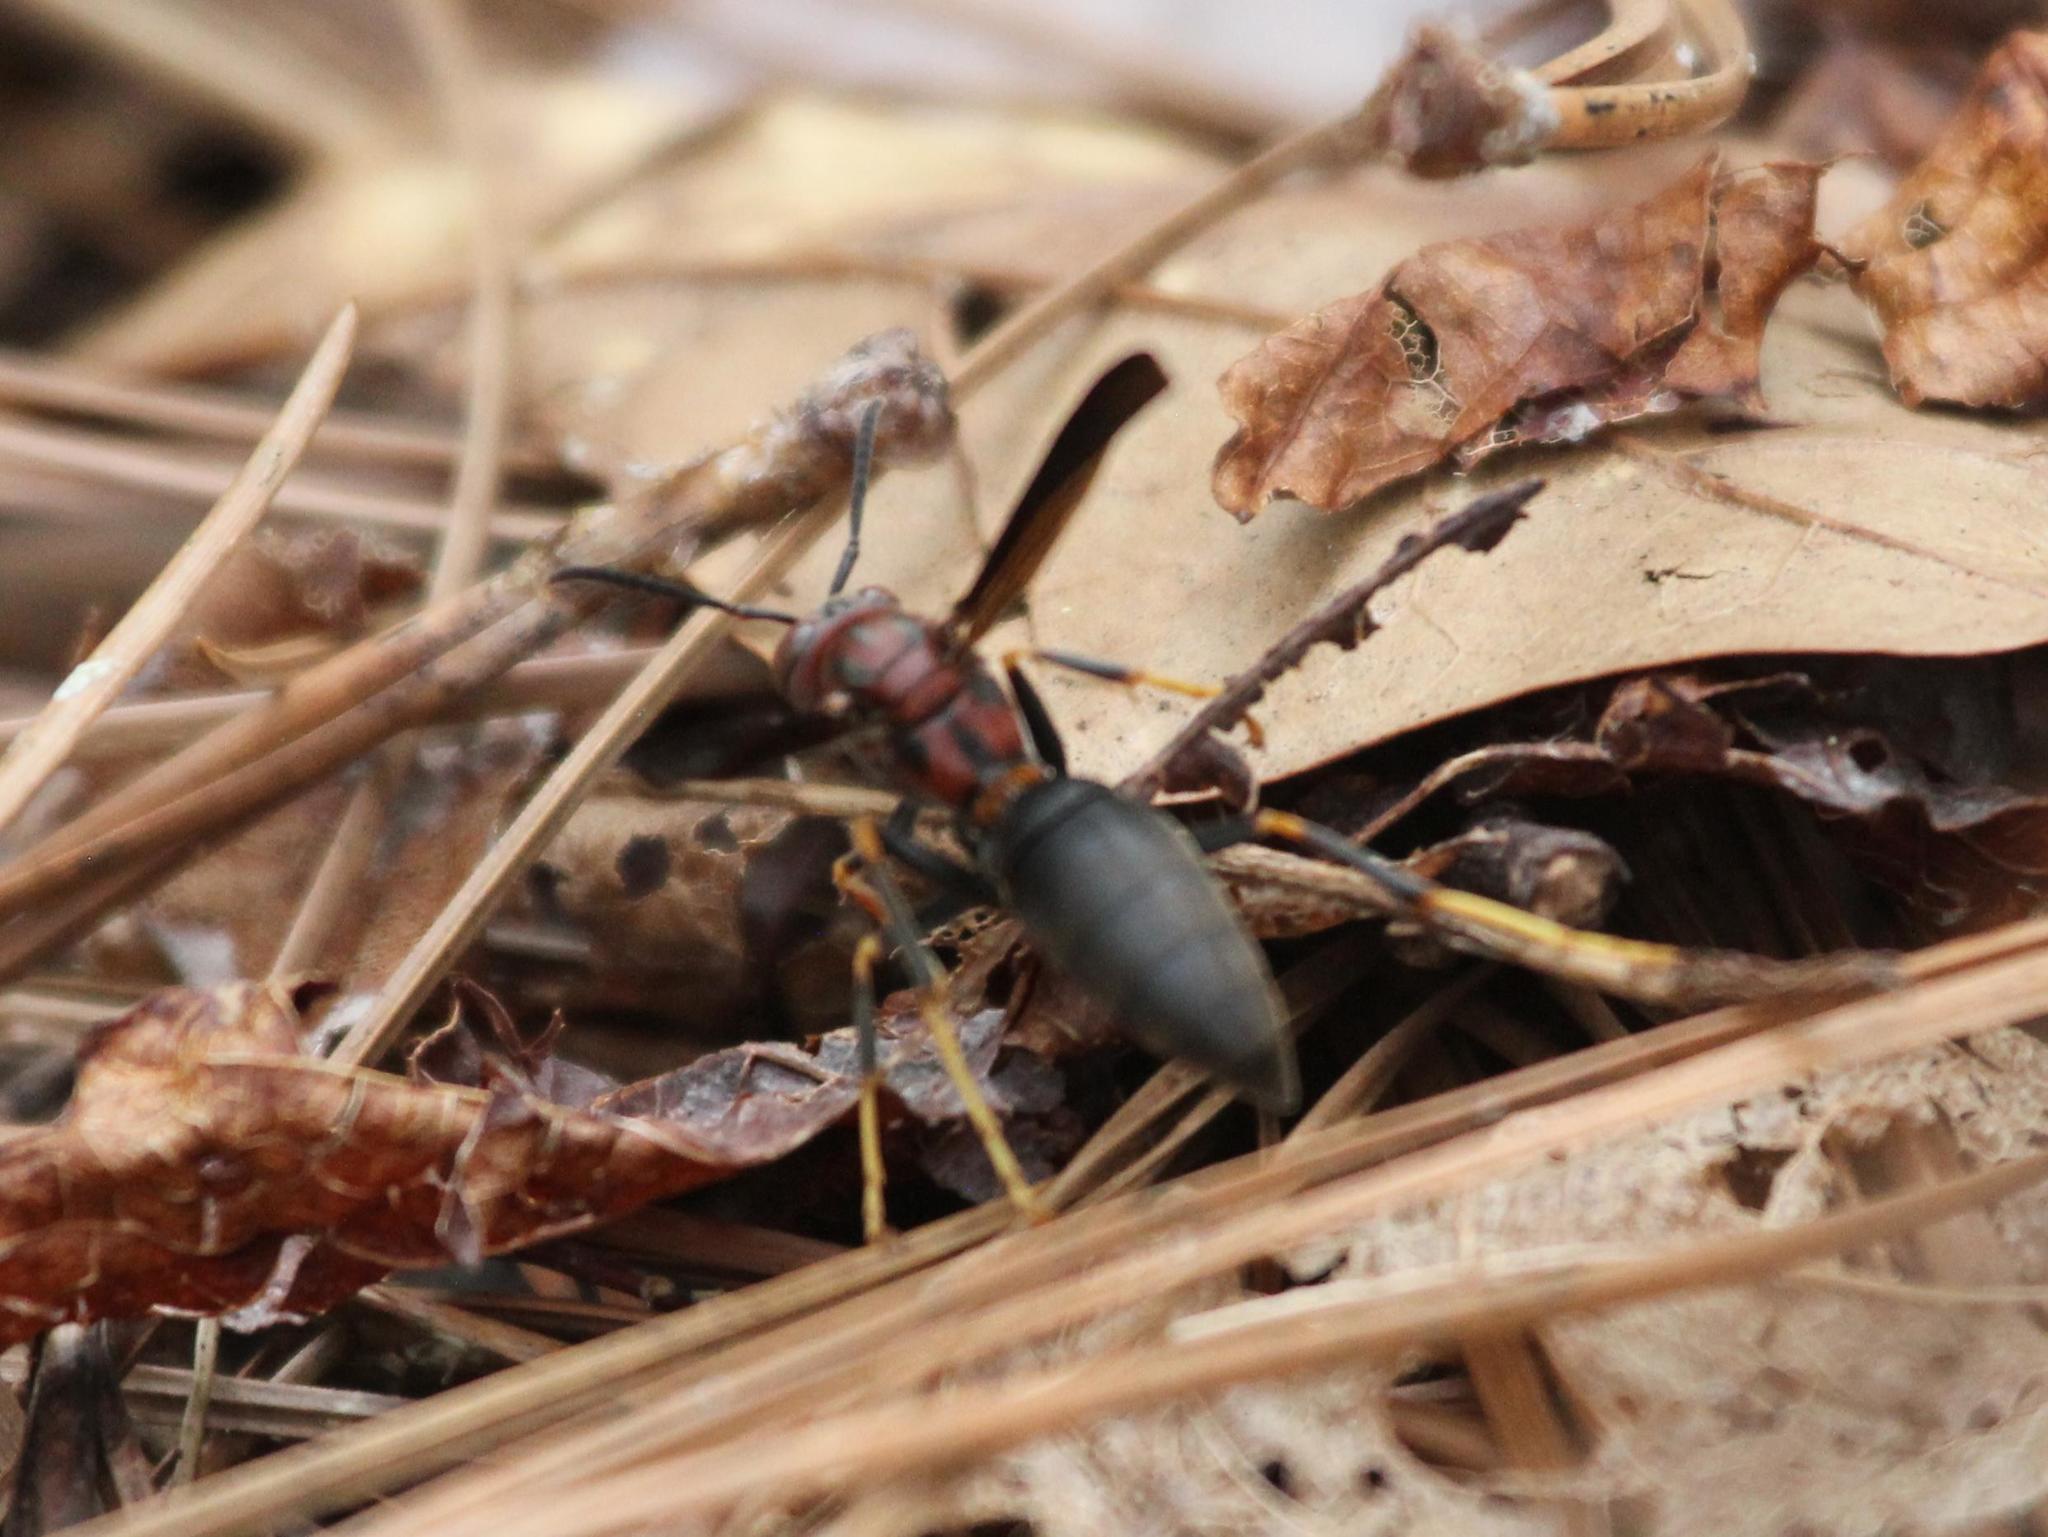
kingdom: Animalia
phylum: Arthropoda
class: Insecta
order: Hymenoptera
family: Eumenidae
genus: Polistes
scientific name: Polistes metricus
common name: Metric paper wasp
